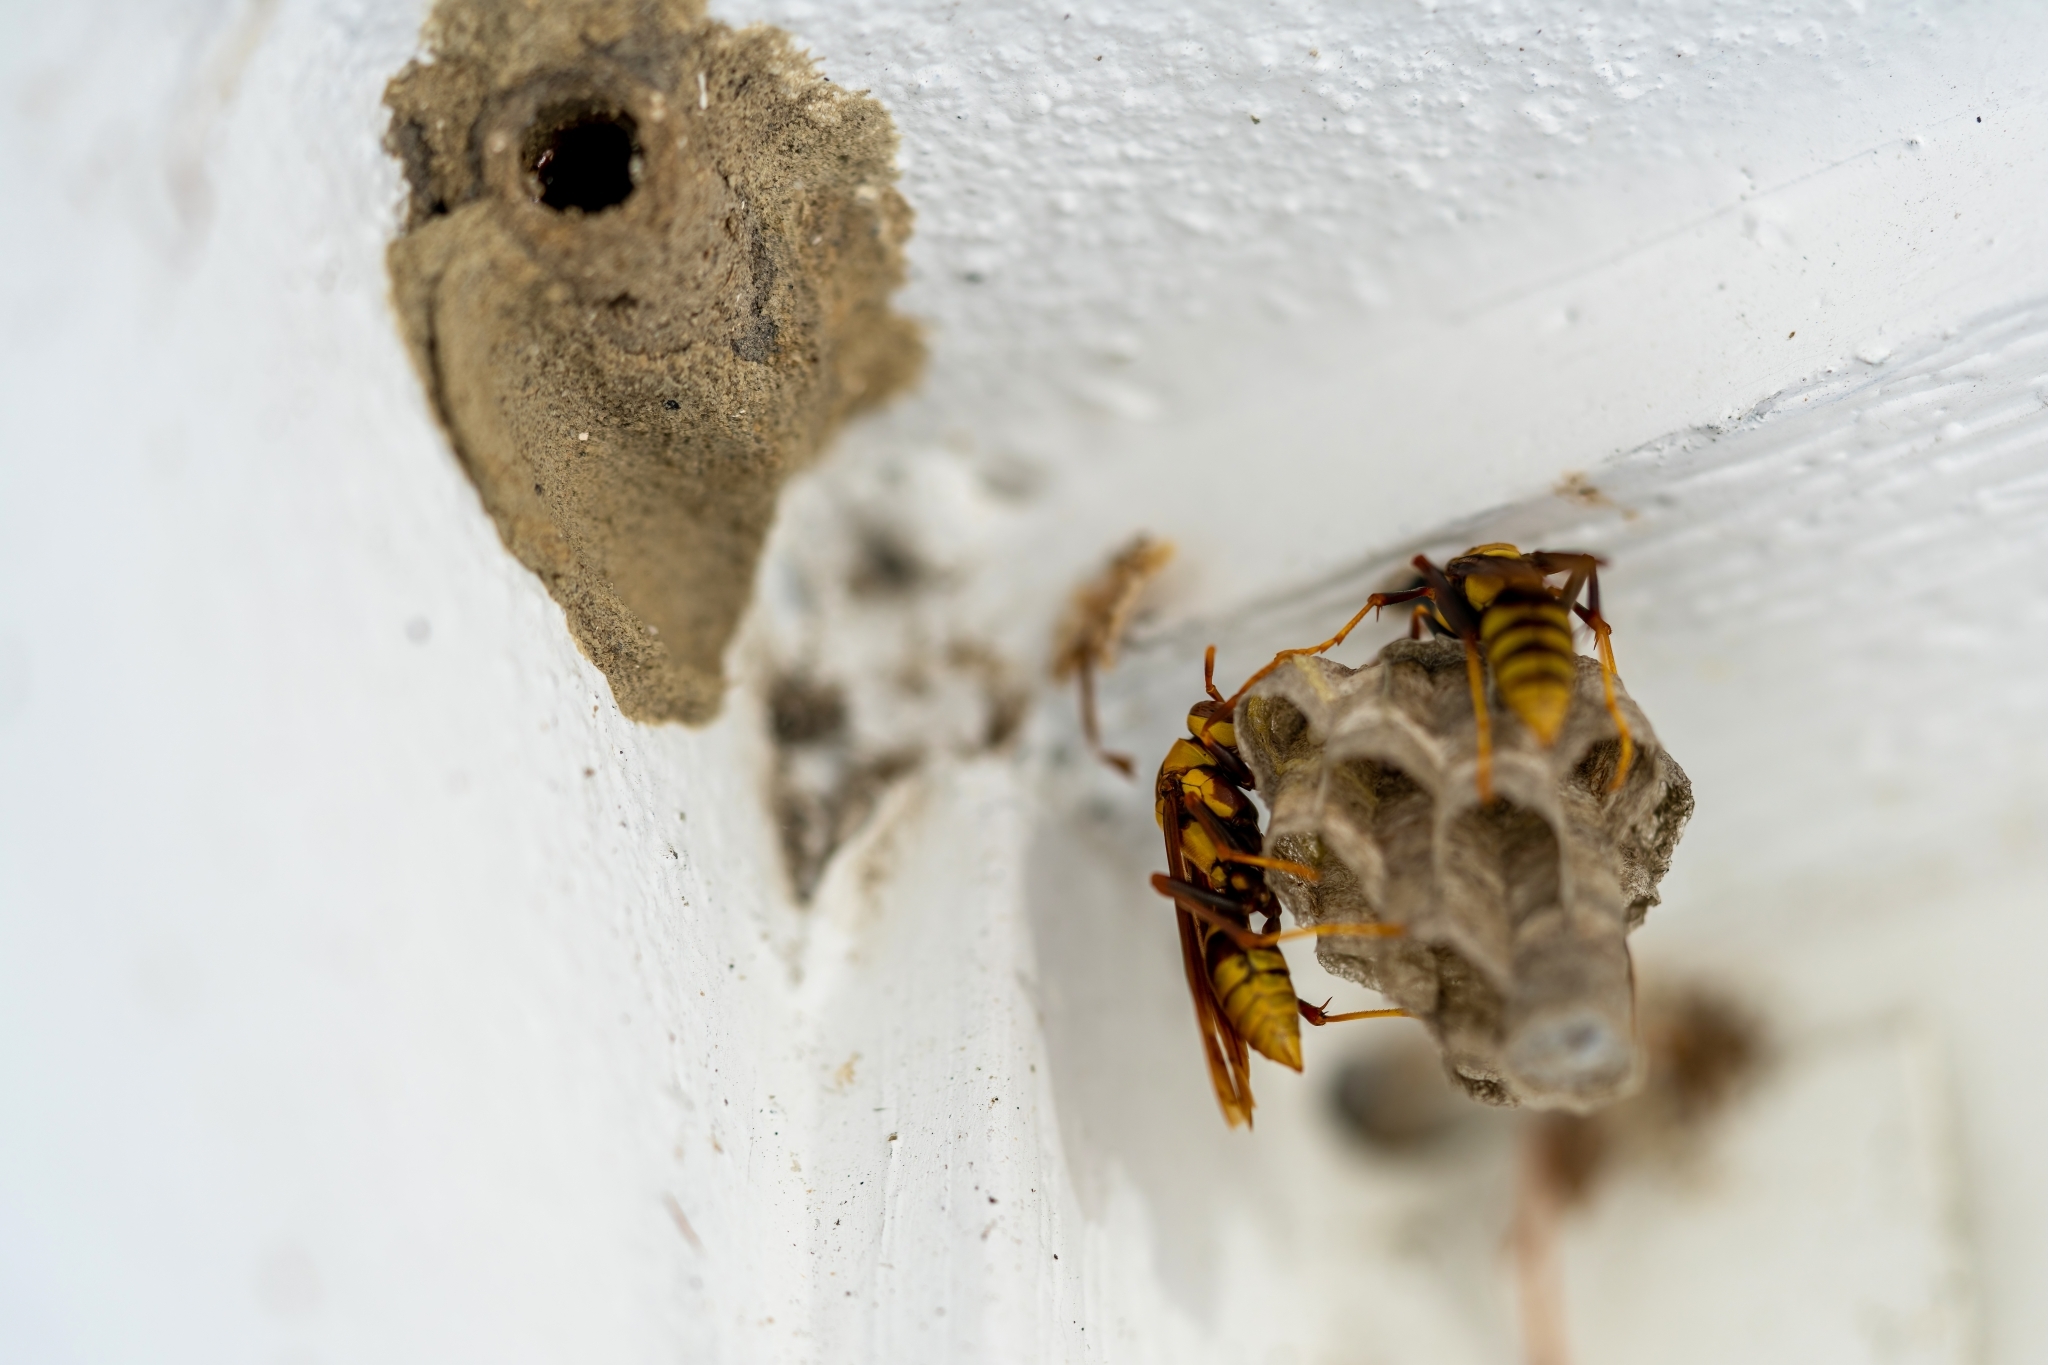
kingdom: Animalia
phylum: Arthropoda
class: Insecta
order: Hymenoptera
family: Eumenidae
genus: Polistes
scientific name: Polistes major
